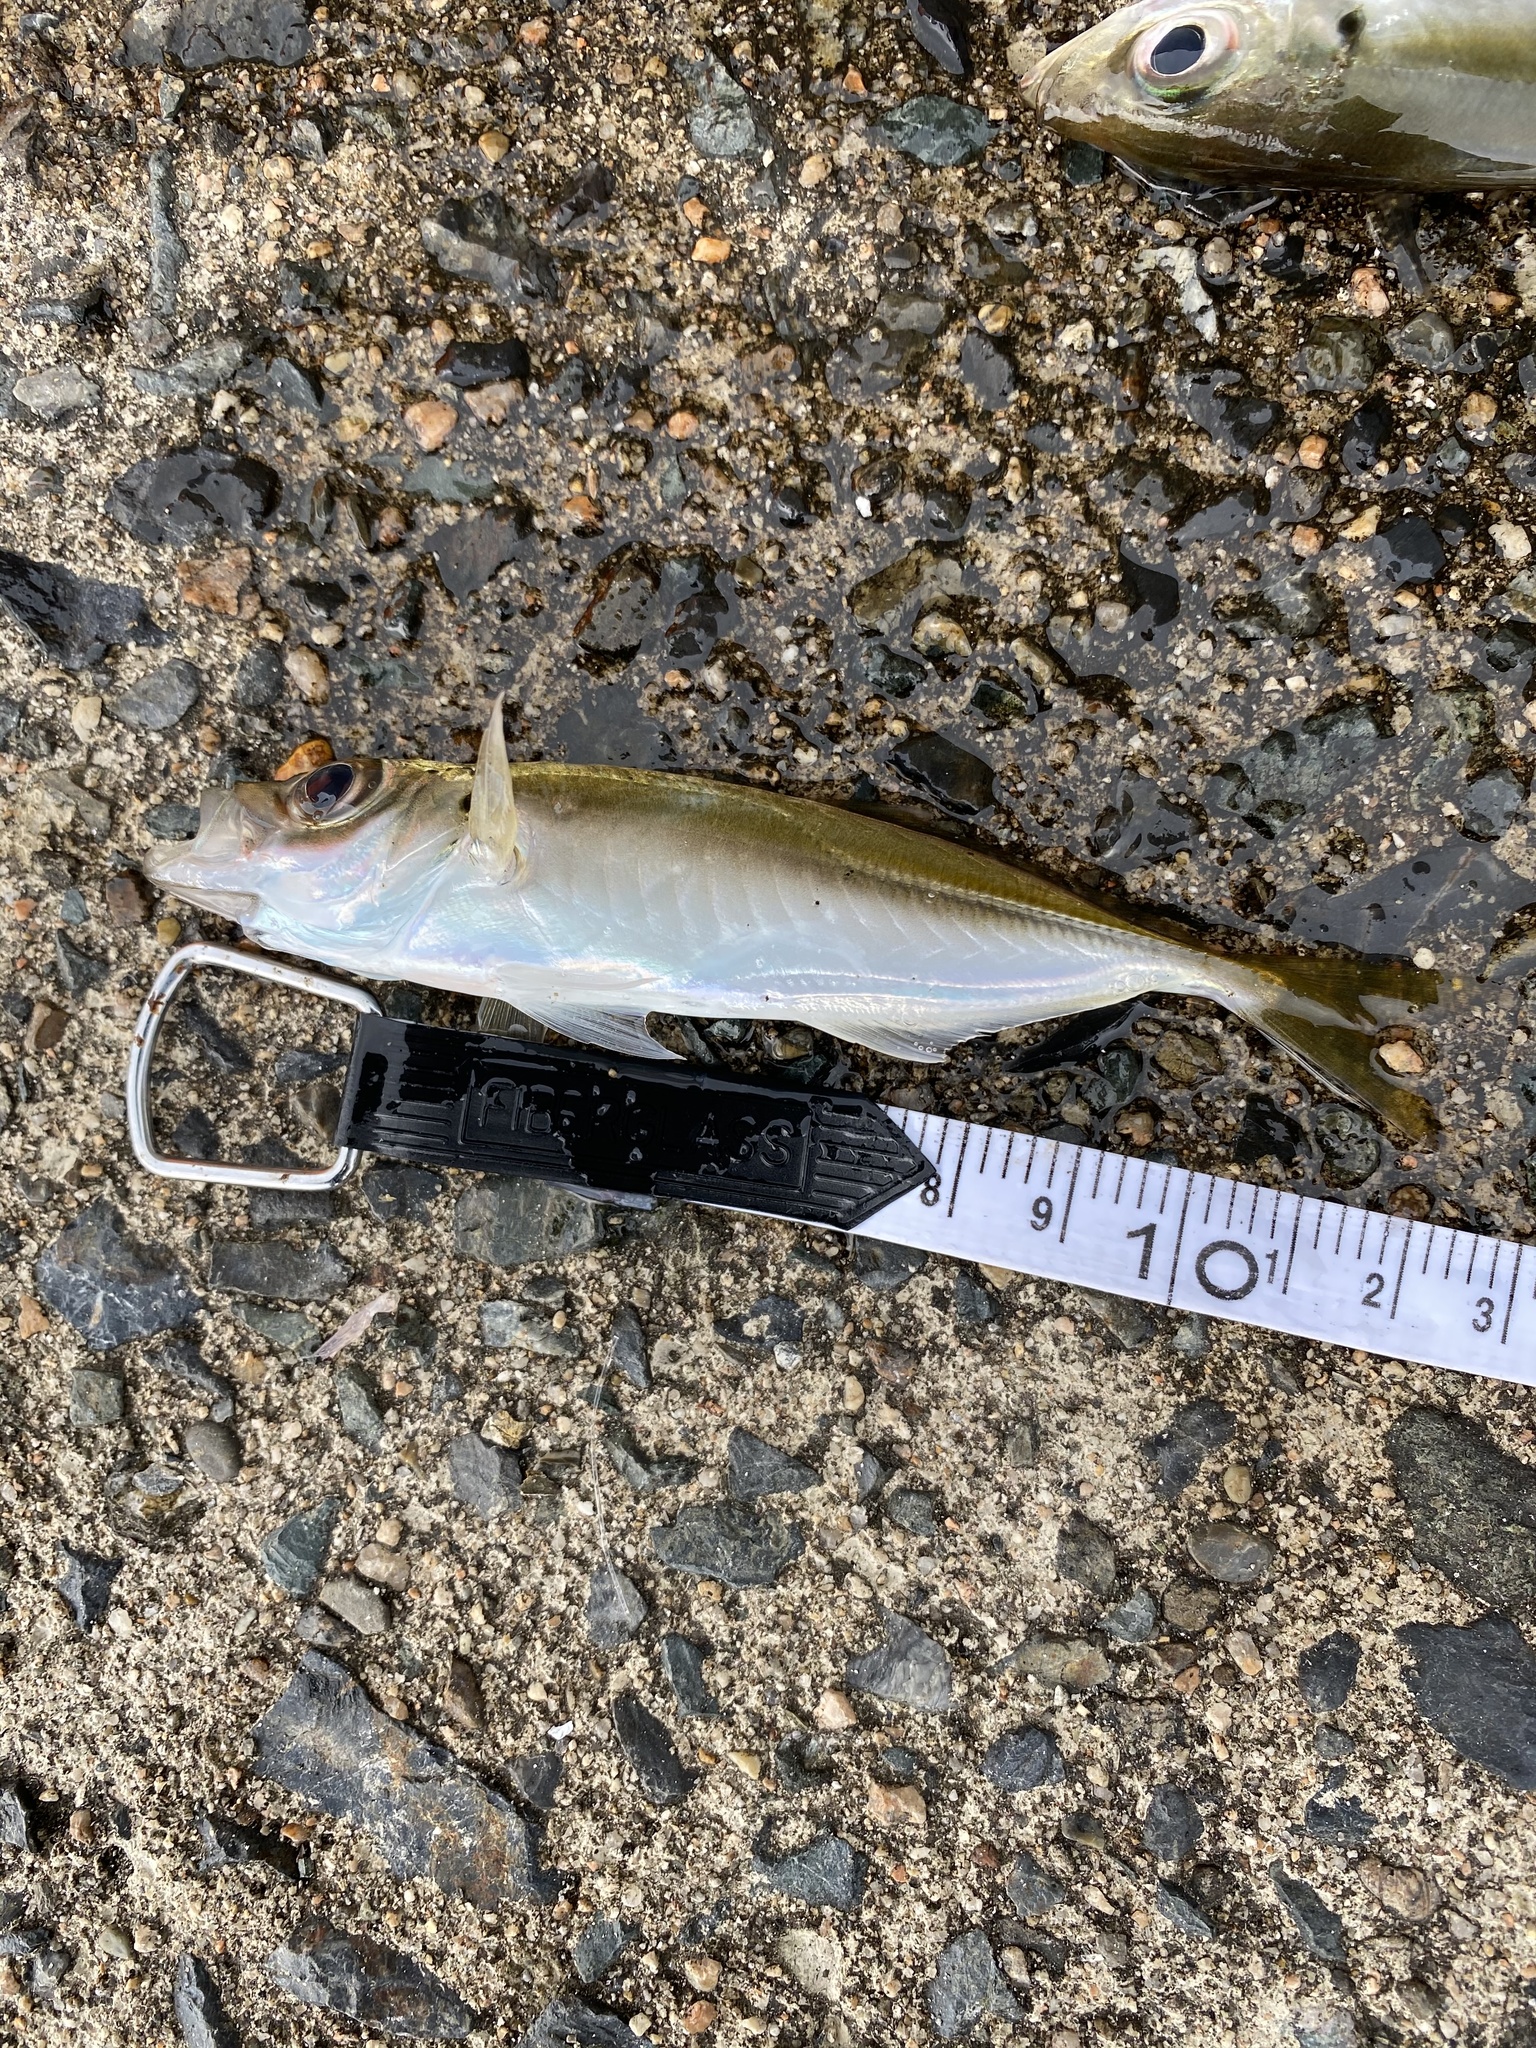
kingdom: Animalia
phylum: Chordata
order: Perciformes
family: Carangidae
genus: Trachurus
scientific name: Trachurus japonicus
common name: Japanese jack mackerel
